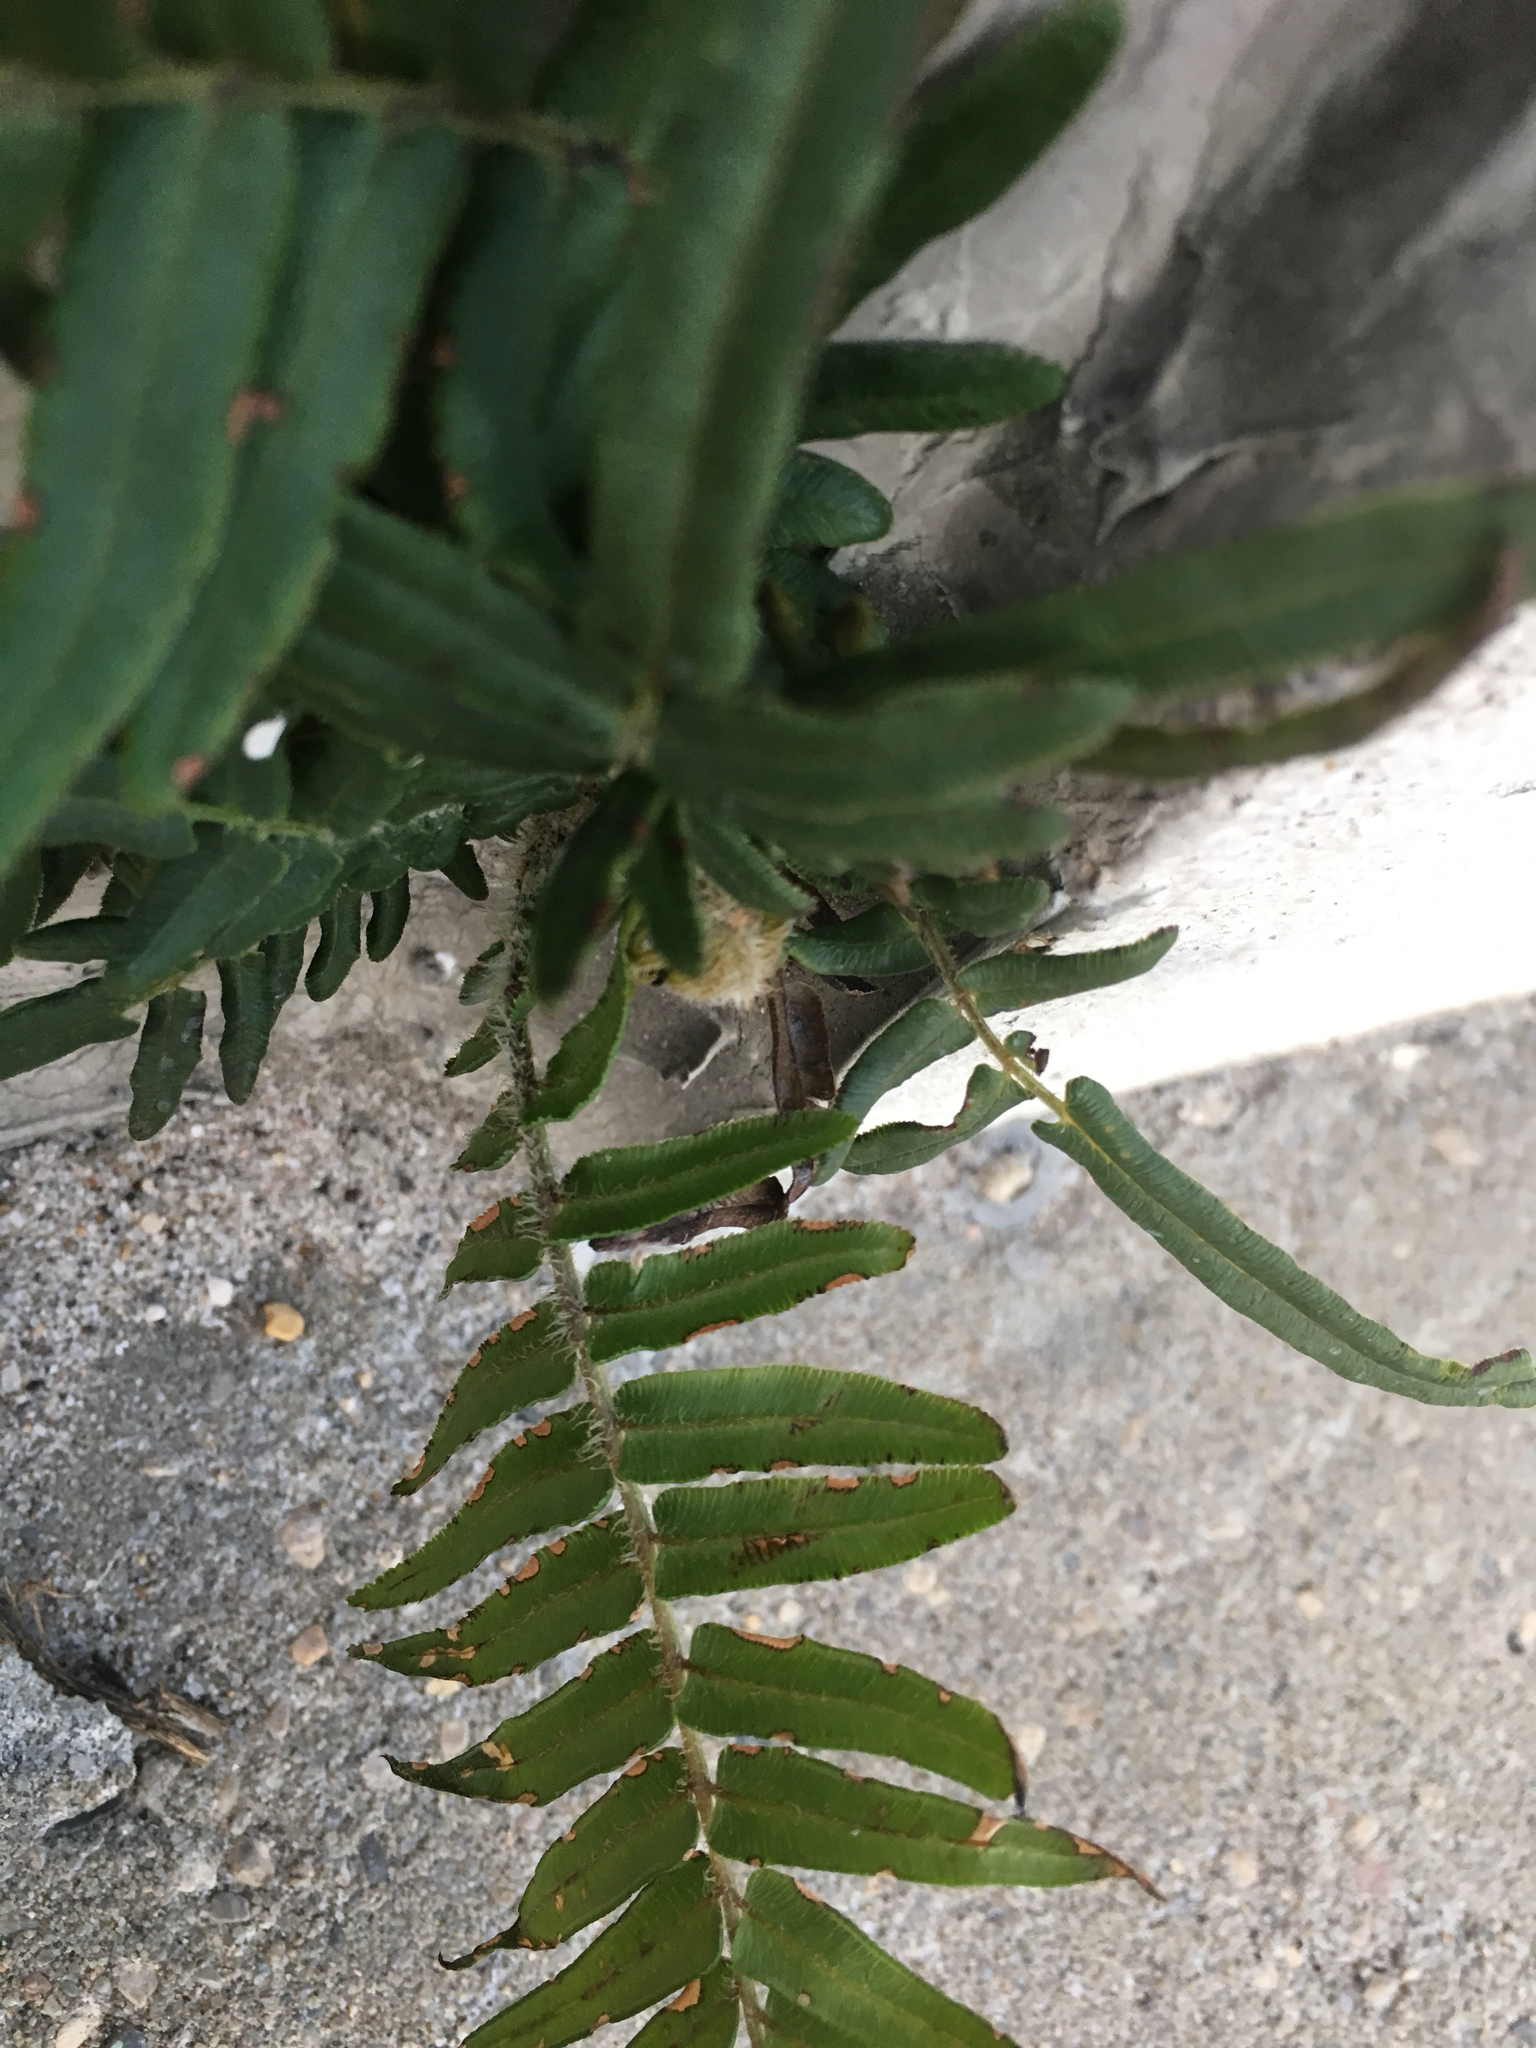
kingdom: Plantae
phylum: Tracheophyta
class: Polypodiopsida
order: Polypodiales
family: Pteridaceae
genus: Pteris
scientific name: Pteris vittata
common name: Ladder brake
